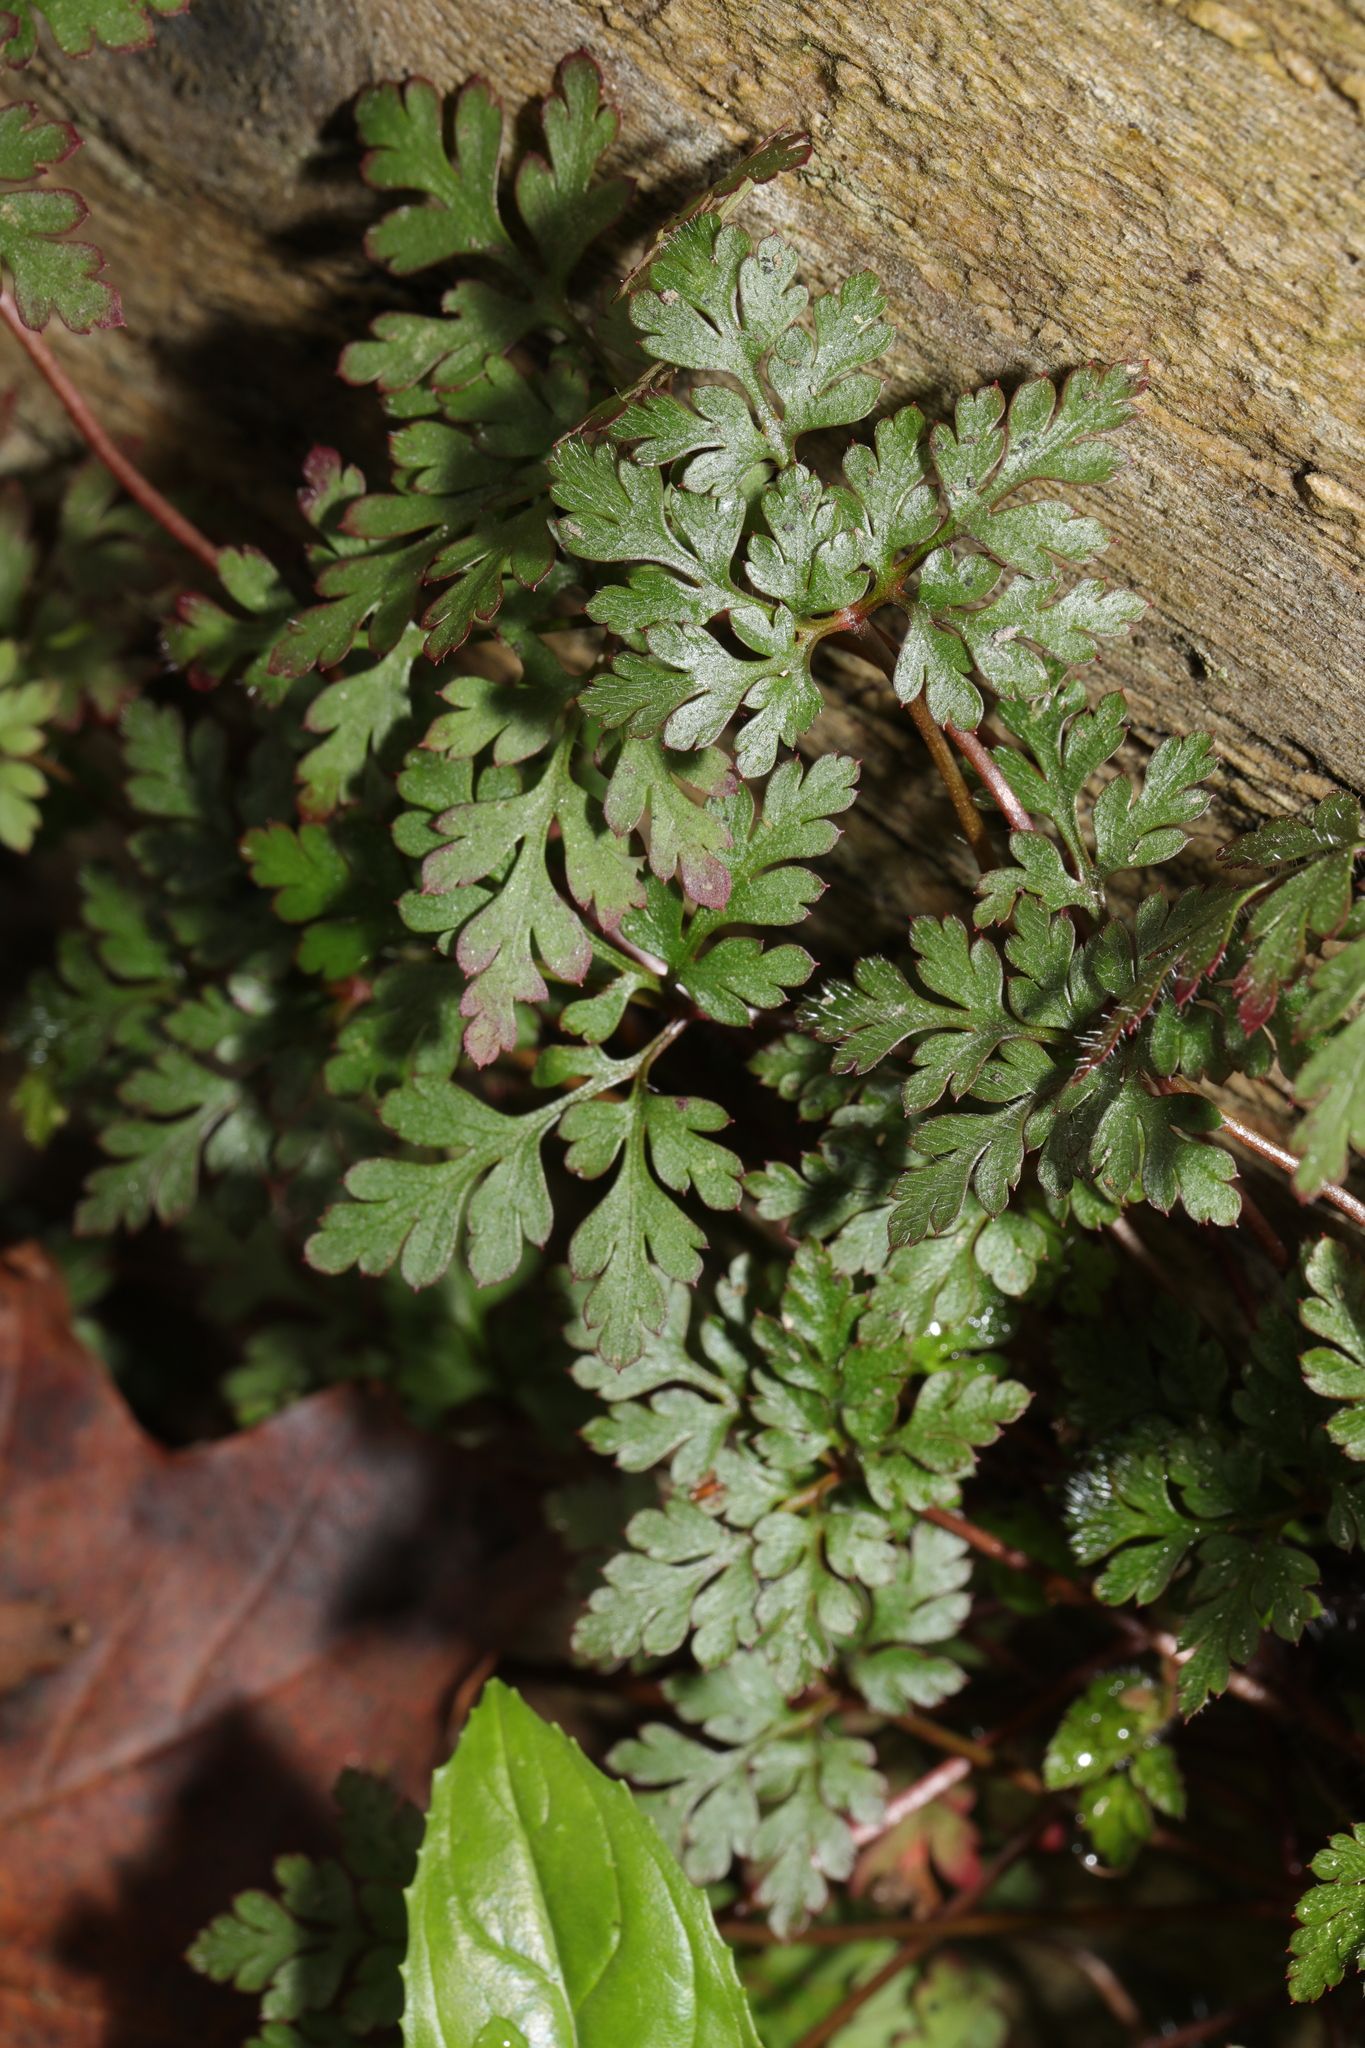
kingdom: Plantae
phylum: Tracheophyta
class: Magnoliopsida
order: Geraniales
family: Geraniaceae
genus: Geranium
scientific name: Geranium robertianum
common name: Herb-robert
